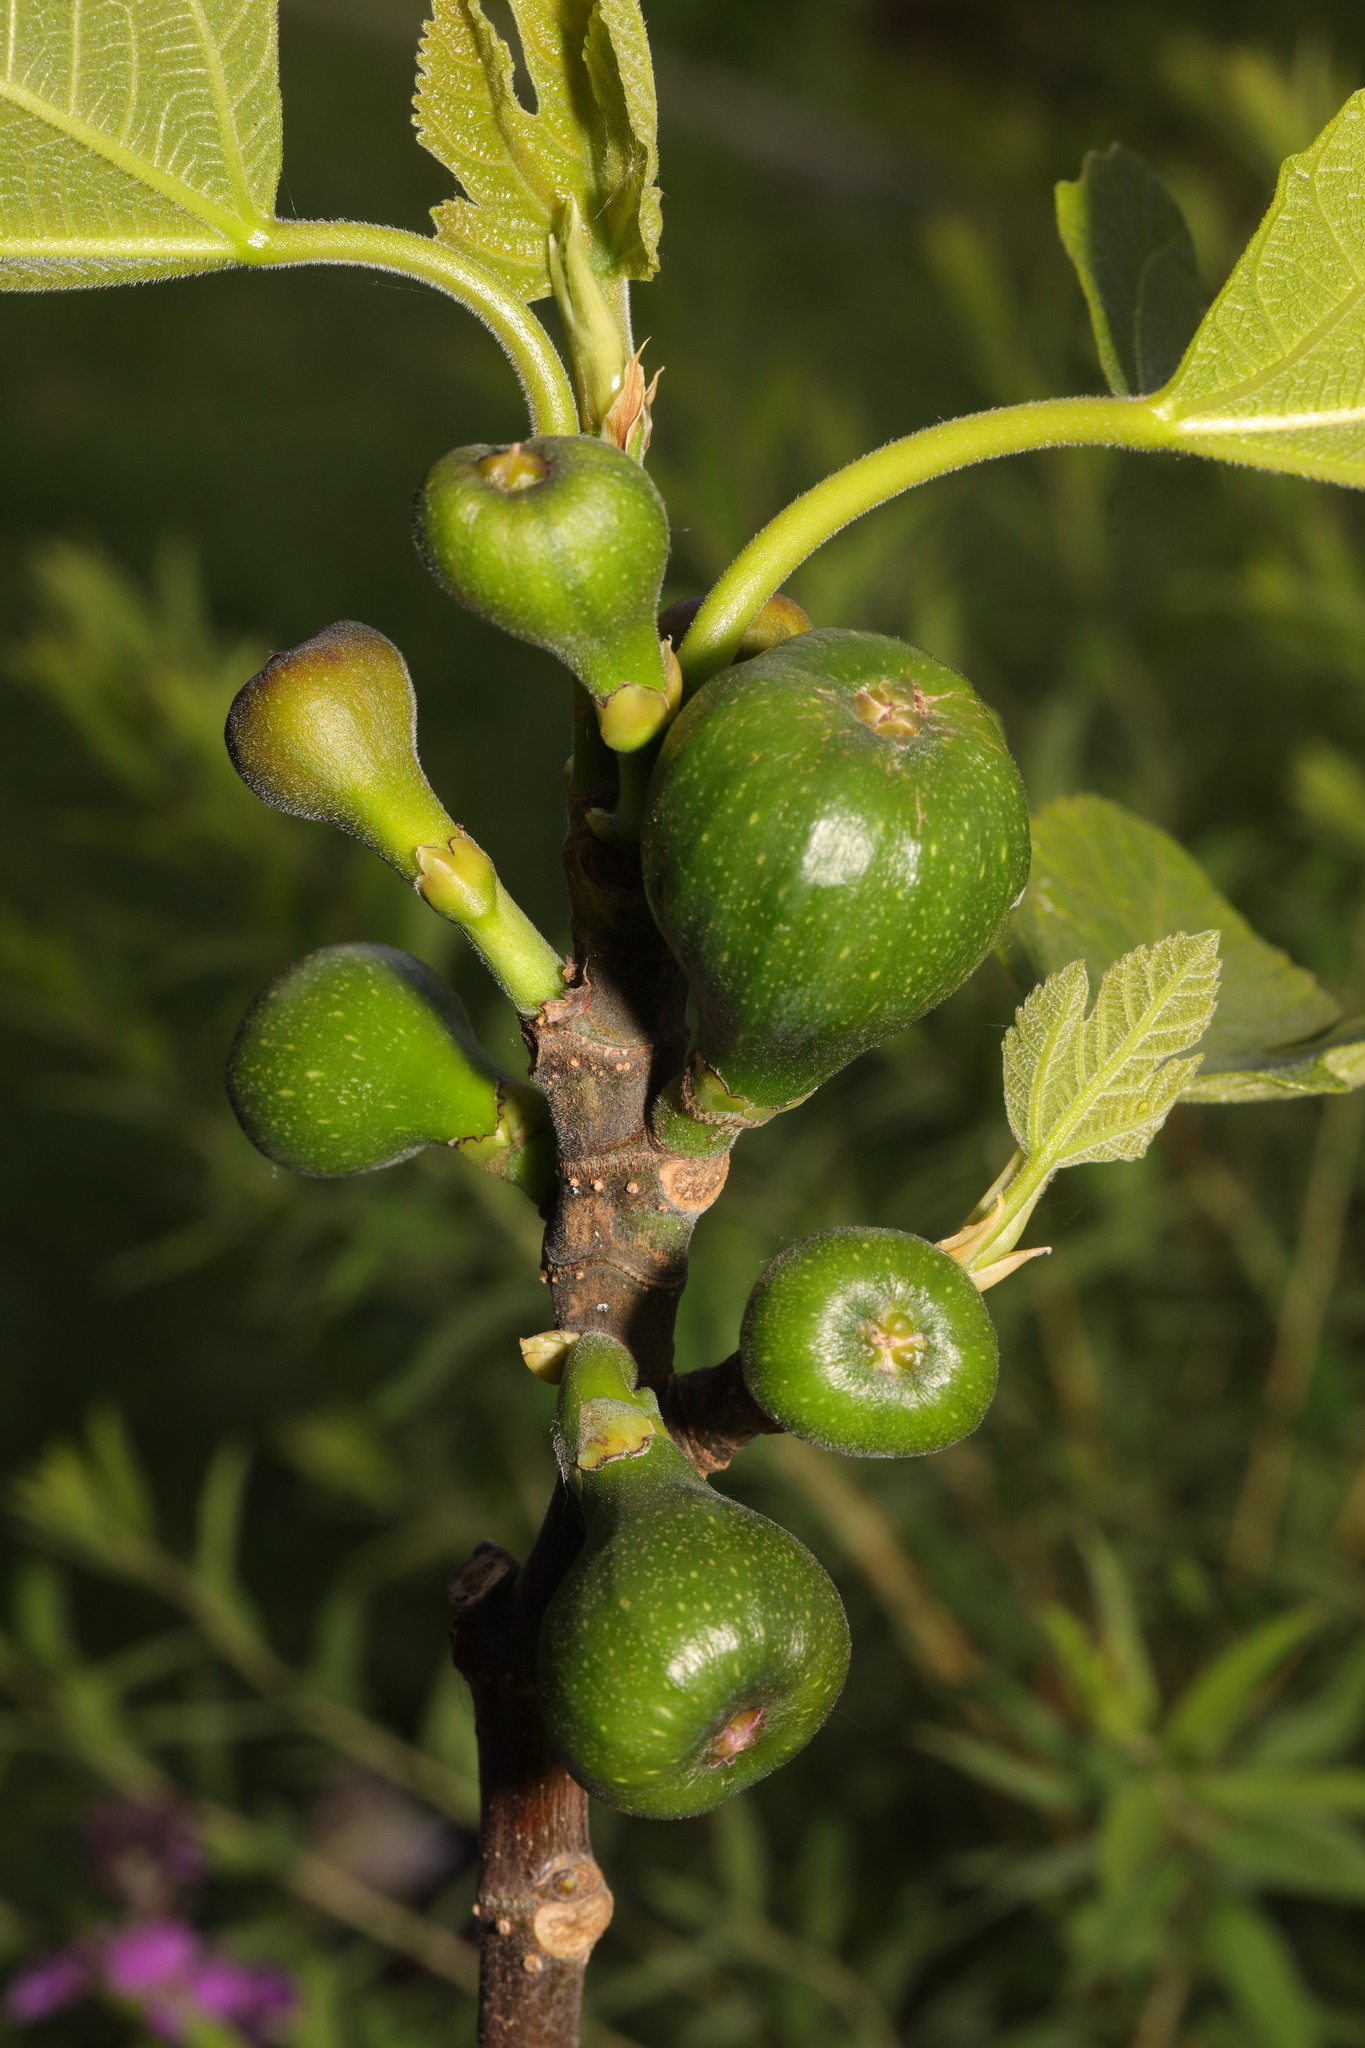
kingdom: Plantae
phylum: Tracheophyta
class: Magnoliopsida
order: Rosales
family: Moraceae
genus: Ficus
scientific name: Ficus carica
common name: Fig
